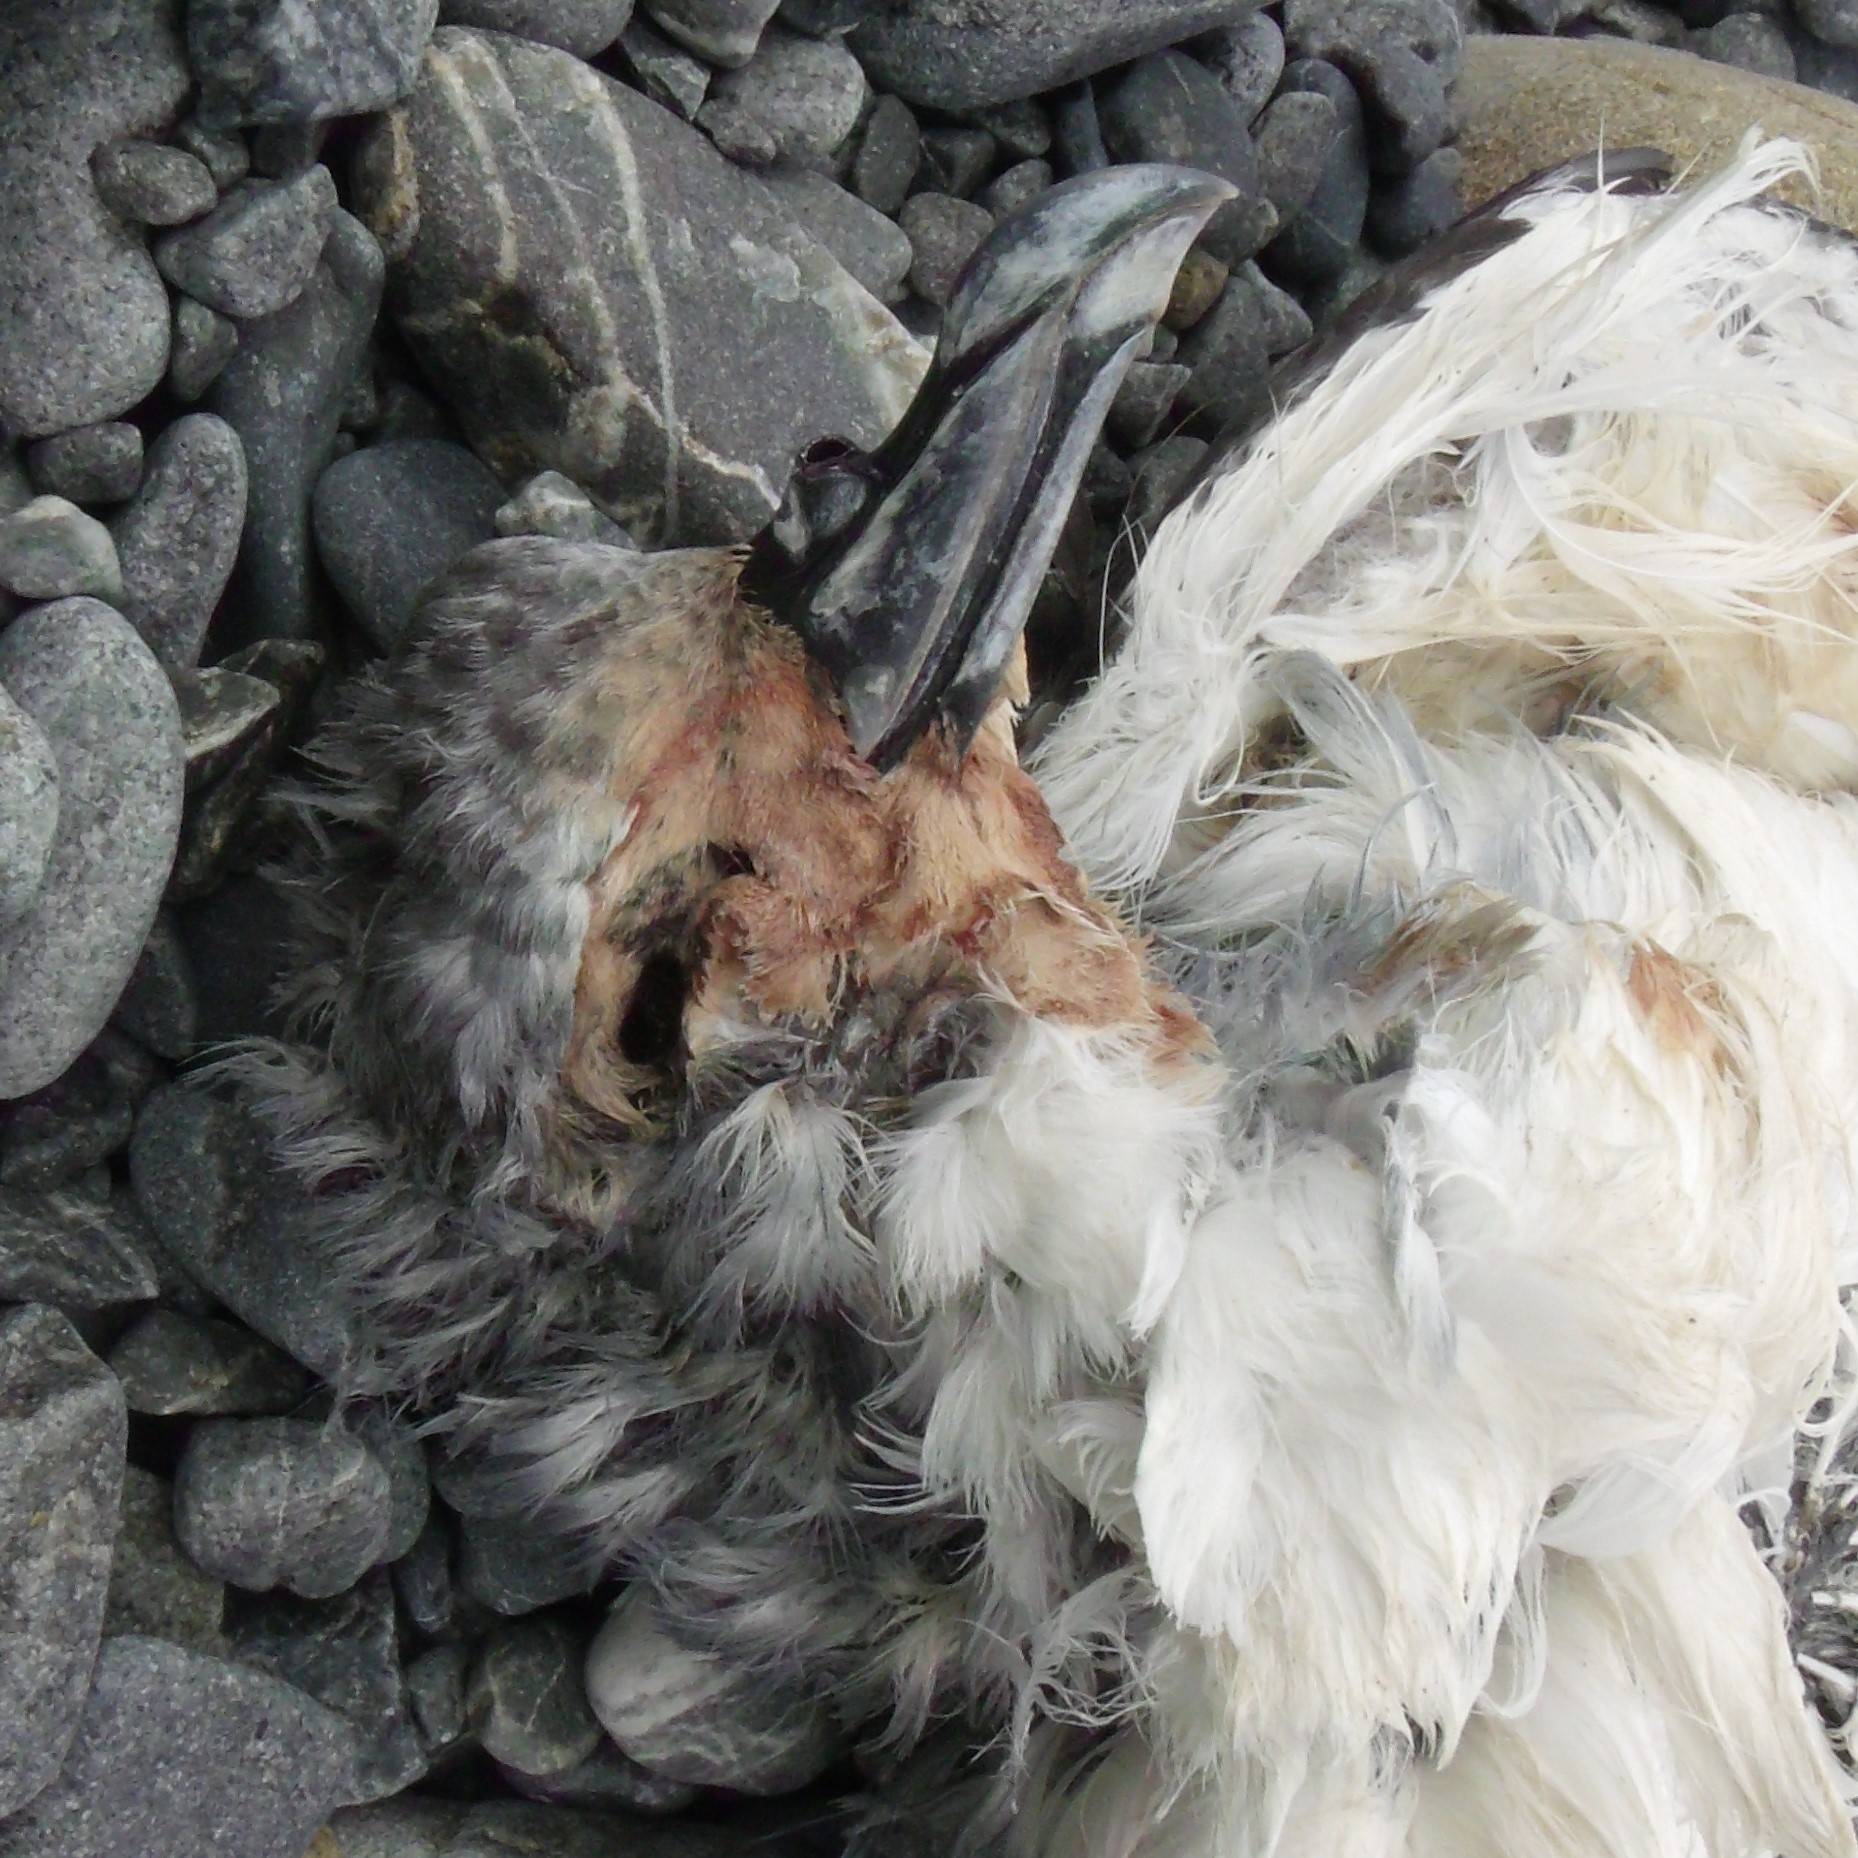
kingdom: Animalia
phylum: Chordata
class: Aves
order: Procellariiformes
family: Pelecanoididae
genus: Pelecanoides
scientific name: Pelecanoides urinatrix
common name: Common diving-petrel
